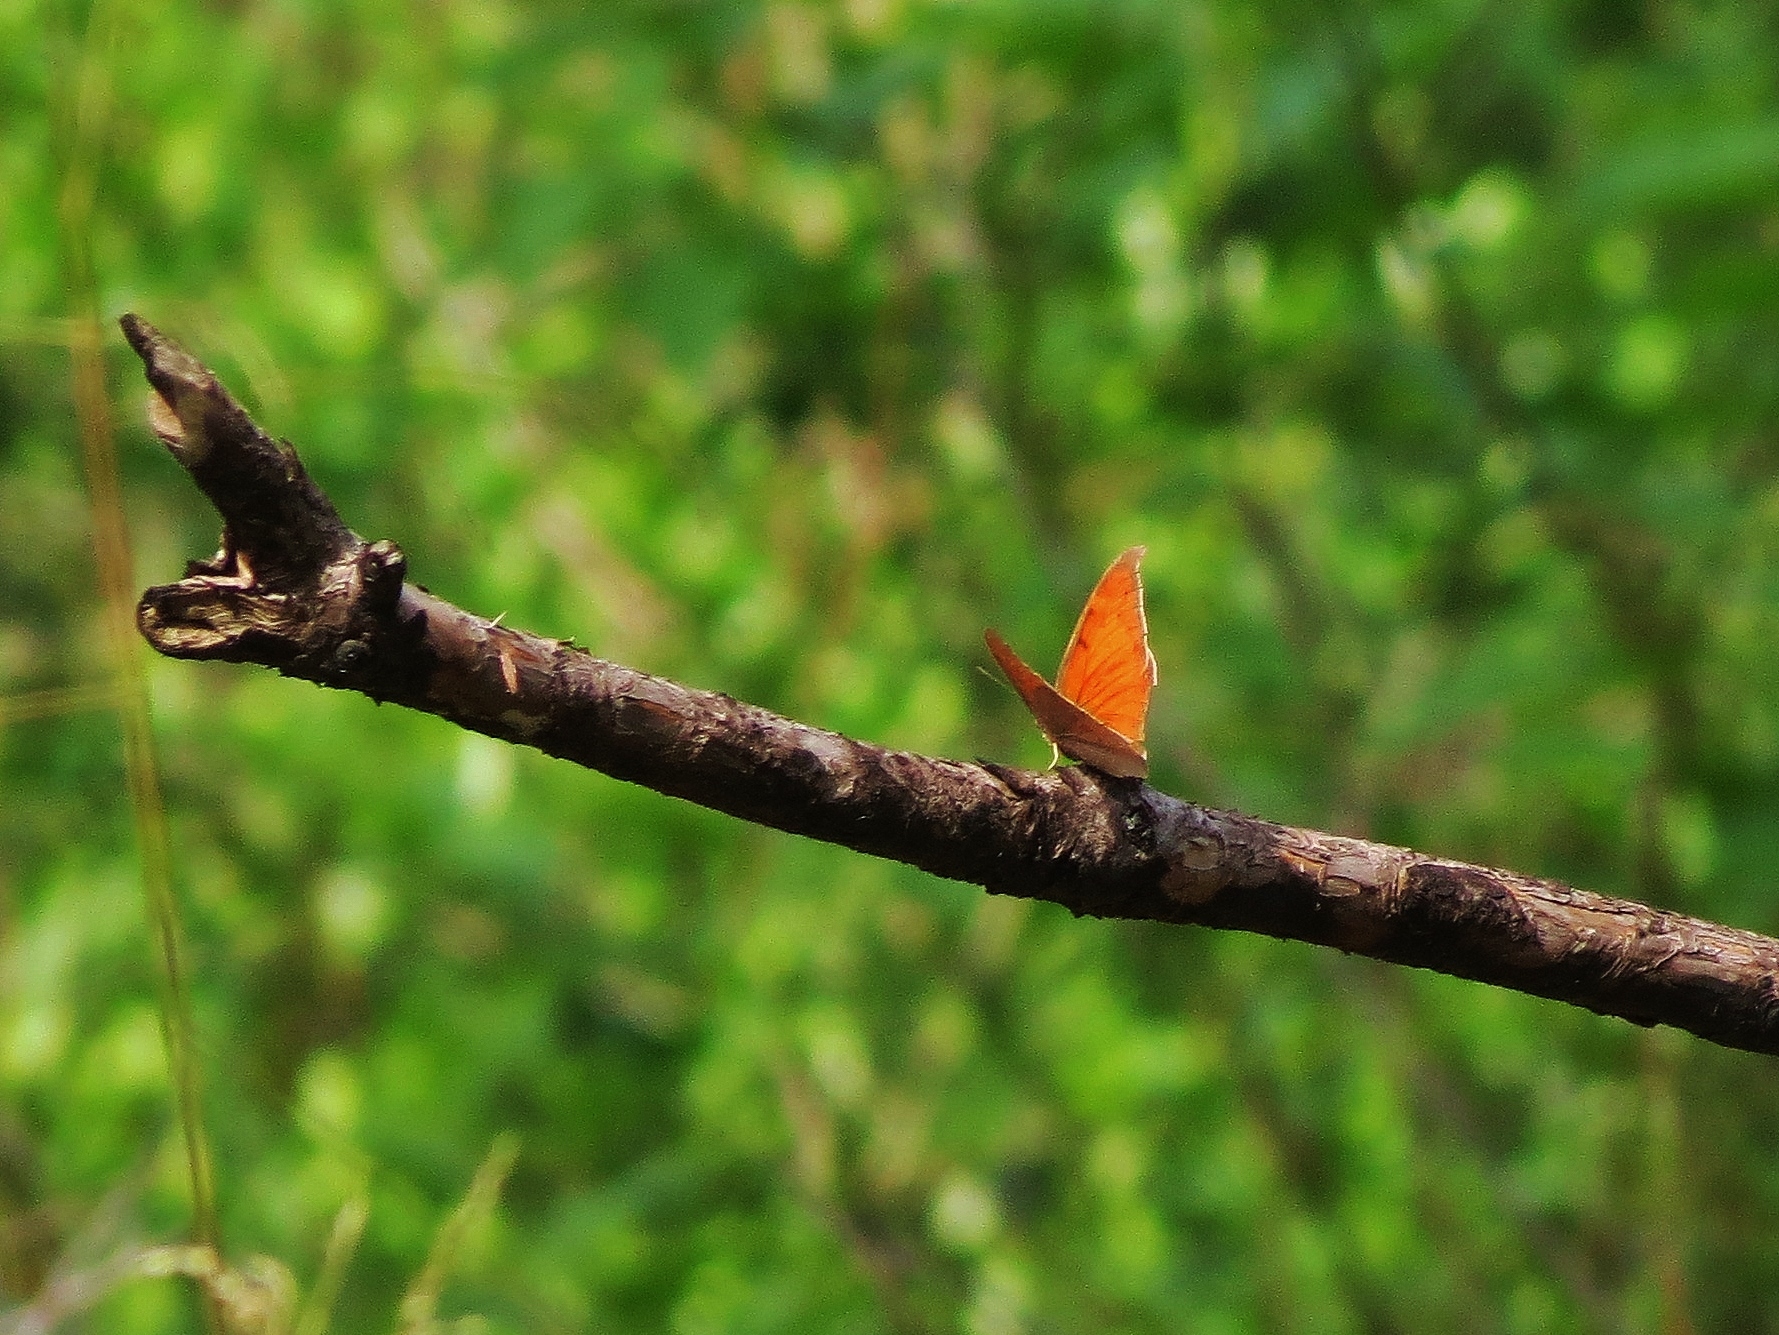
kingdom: Animalia
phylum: Arthropoda
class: Insecta
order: Lepidoptera
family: Nymphalidae
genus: Anaea
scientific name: Anaea andria
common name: Goatweed leafwing
